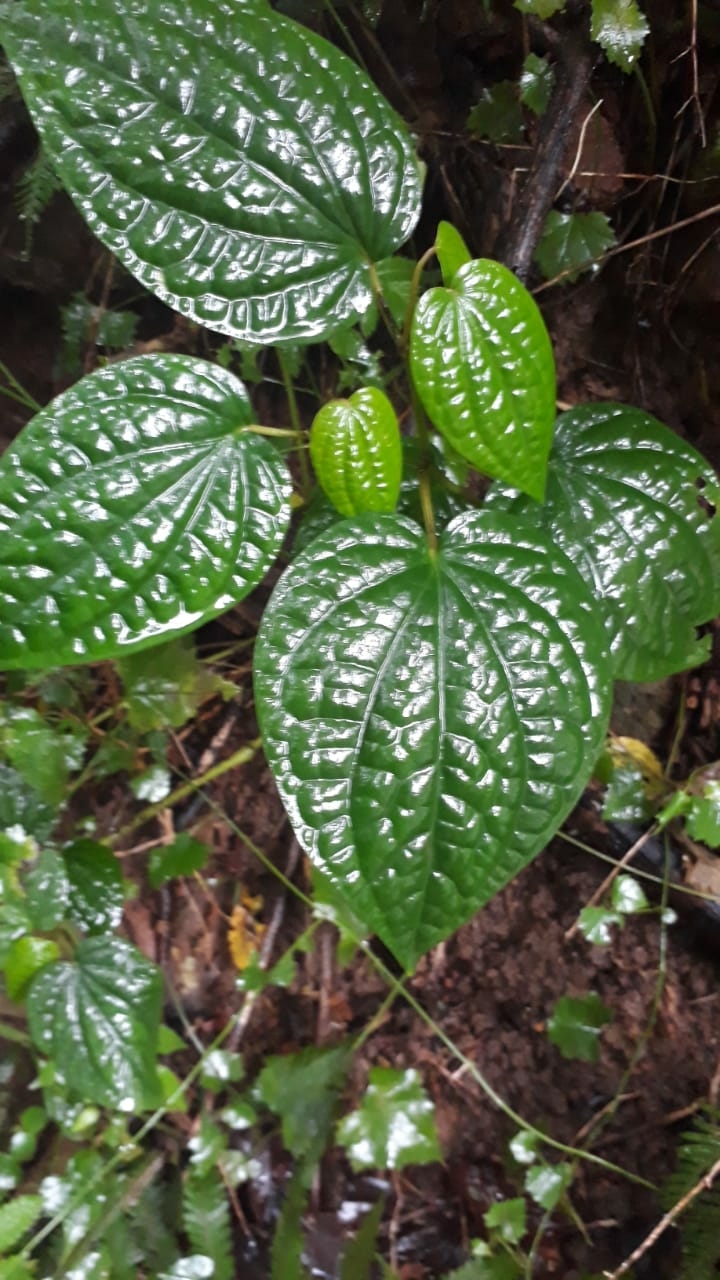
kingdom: Plantae
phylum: Tracheophyta
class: Magnoliopsida
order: Piperales
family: Piperaceae
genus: Piper
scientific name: Piper capense
